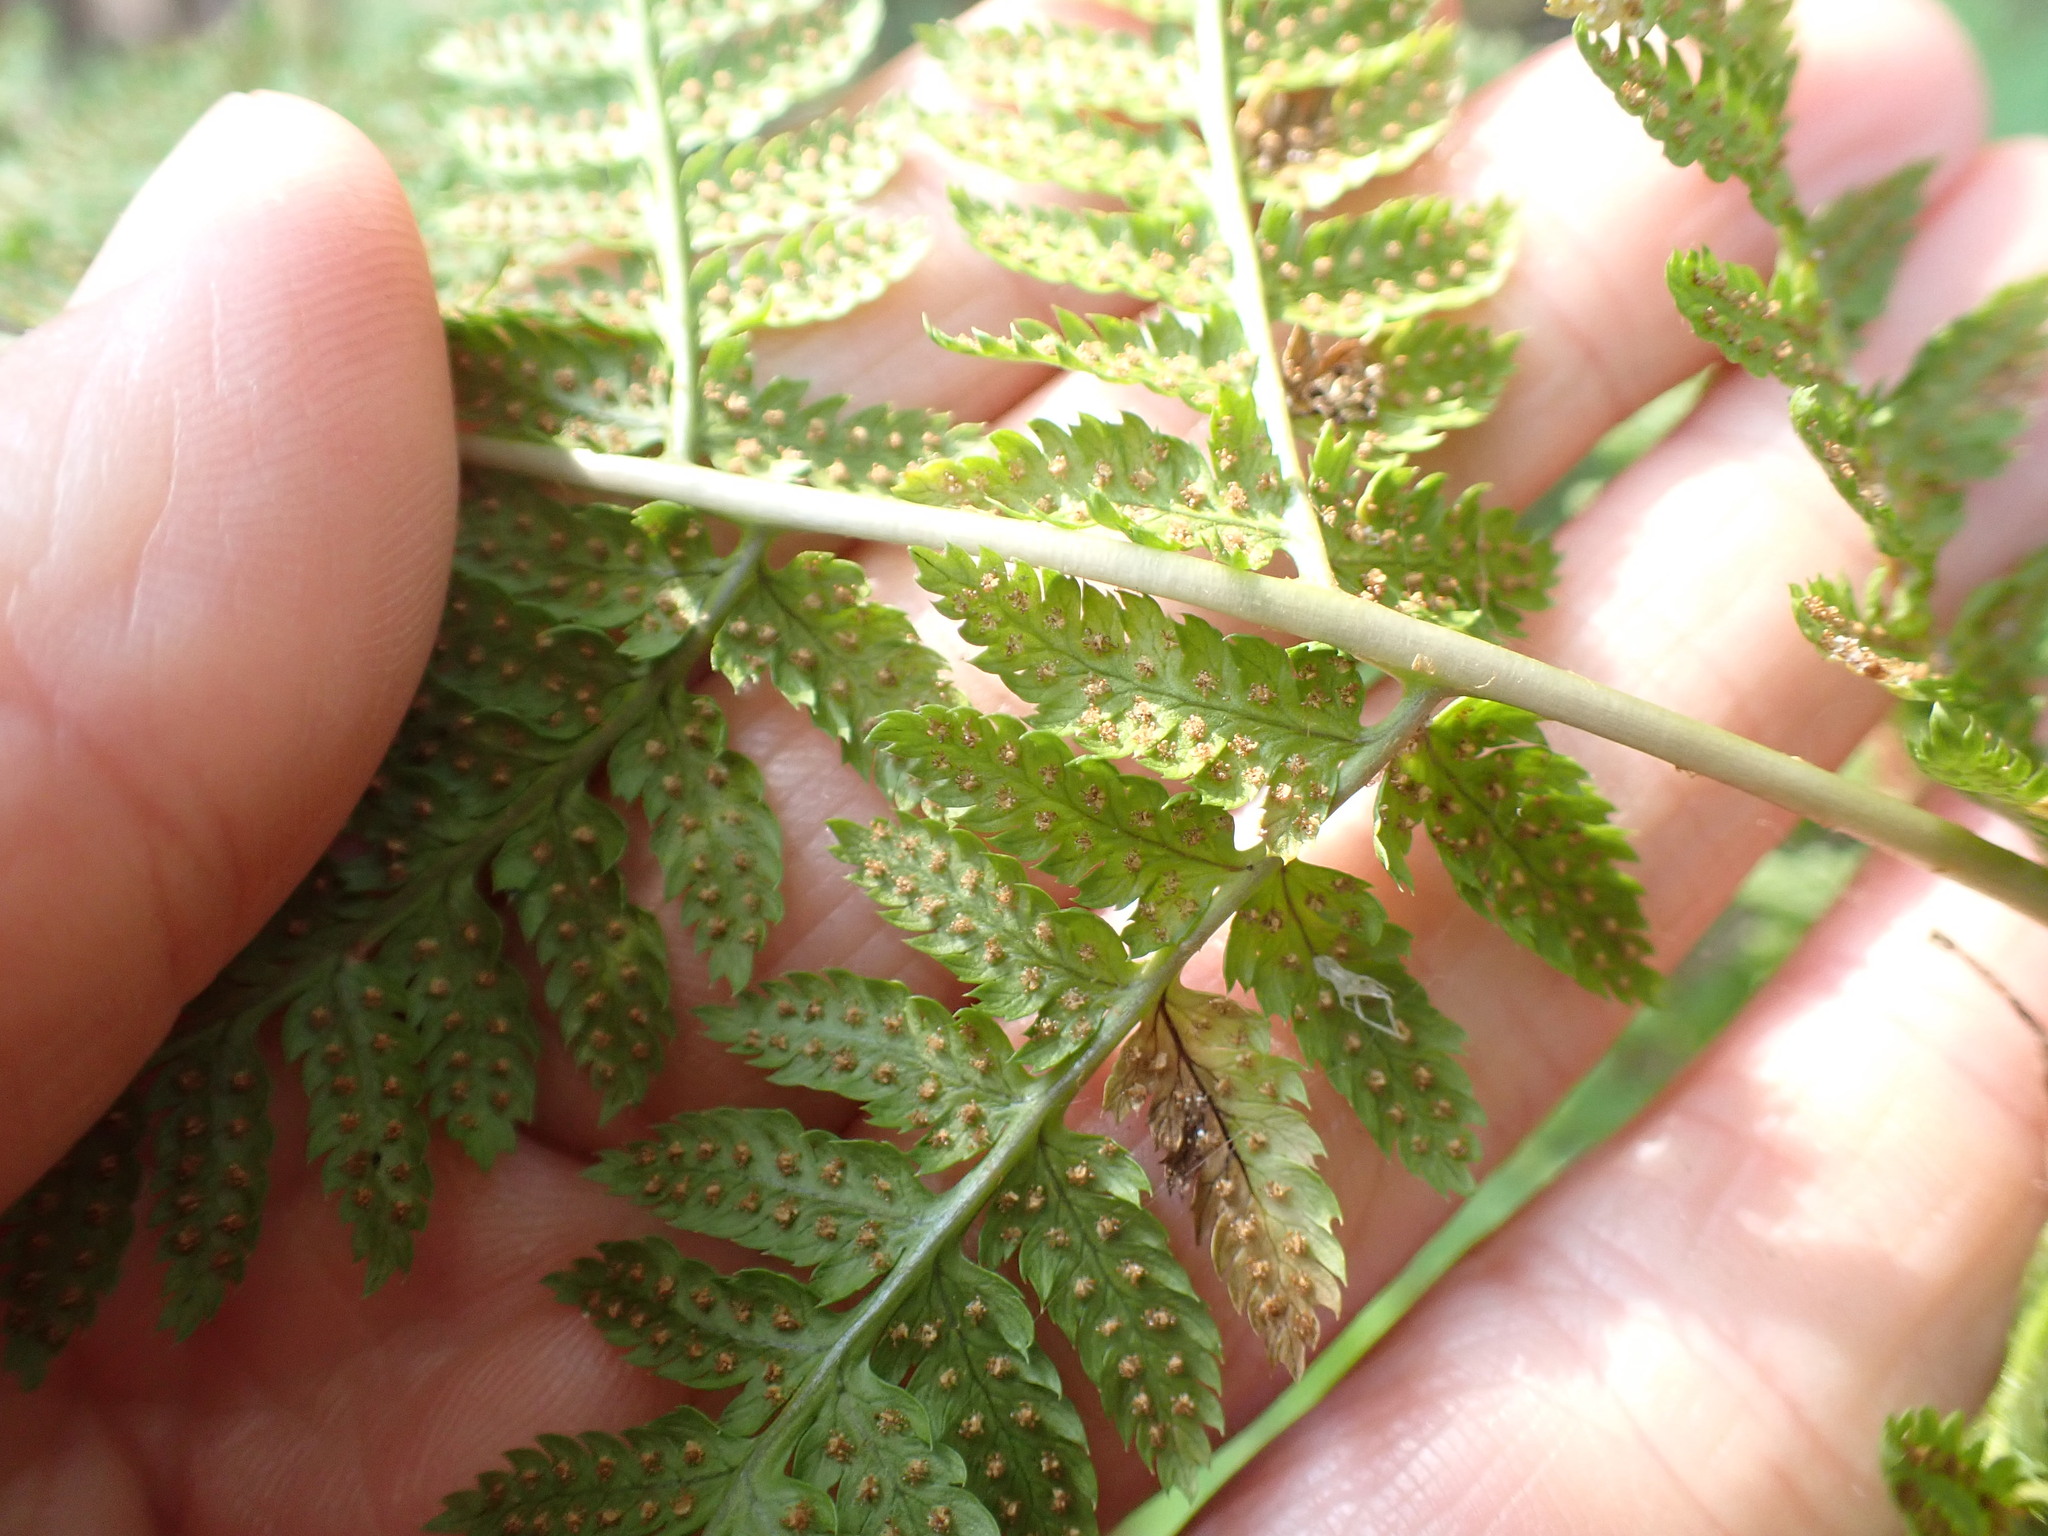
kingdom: Plantae
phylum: Tracheophyta
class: Polypodiopsida
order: Polypodiales
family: Dryopteridaceae
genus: Dryopteris
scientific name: Dryopteris carthusiana
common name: Narrow buckler-fern
